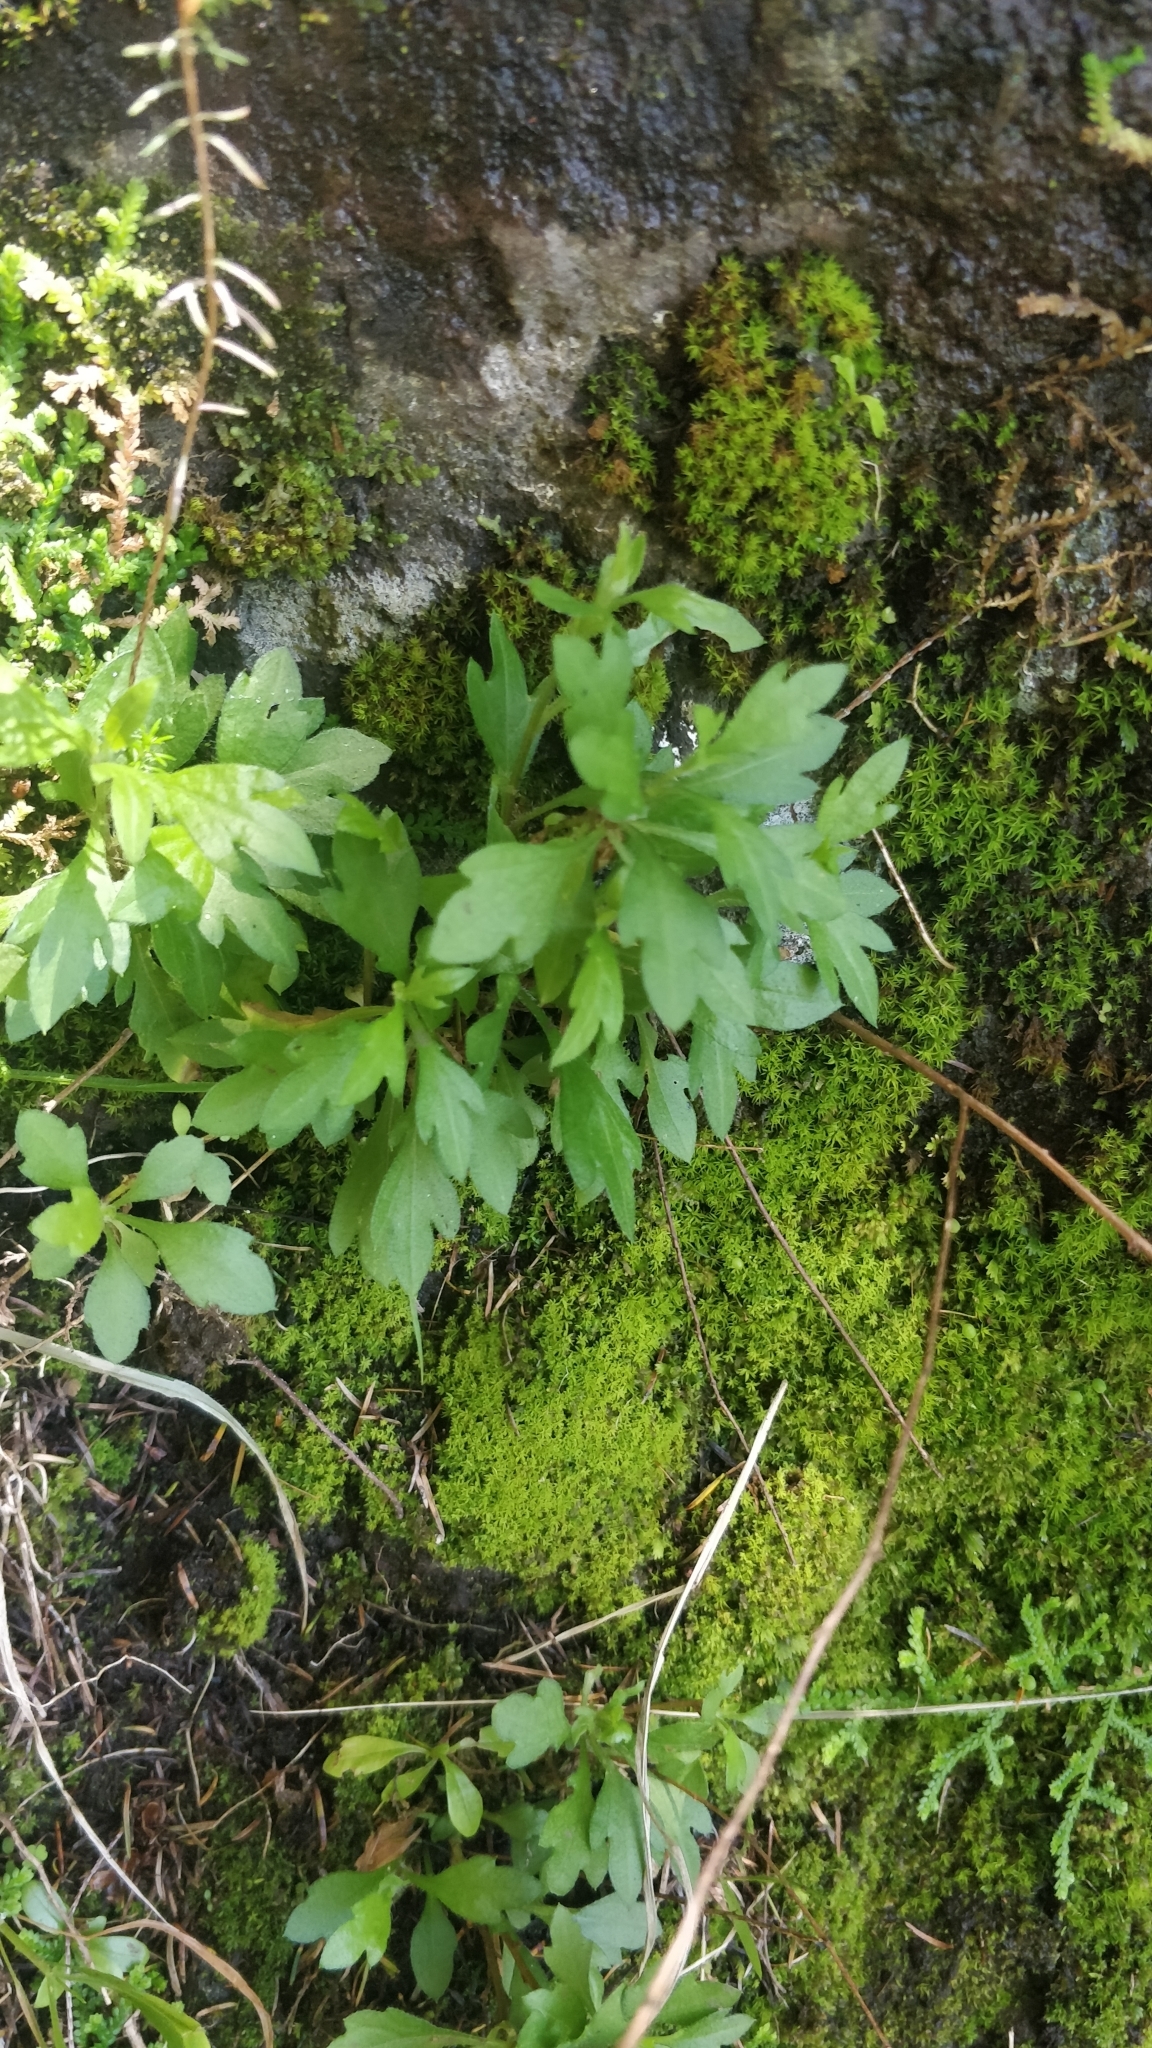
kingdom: Plantae
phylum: Tracheophyta
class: Magnoliopsida
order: Asterales
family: Asteraceae
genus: Erigeron
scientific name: Erigeron karvinskianus
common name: Mexican fleabane
